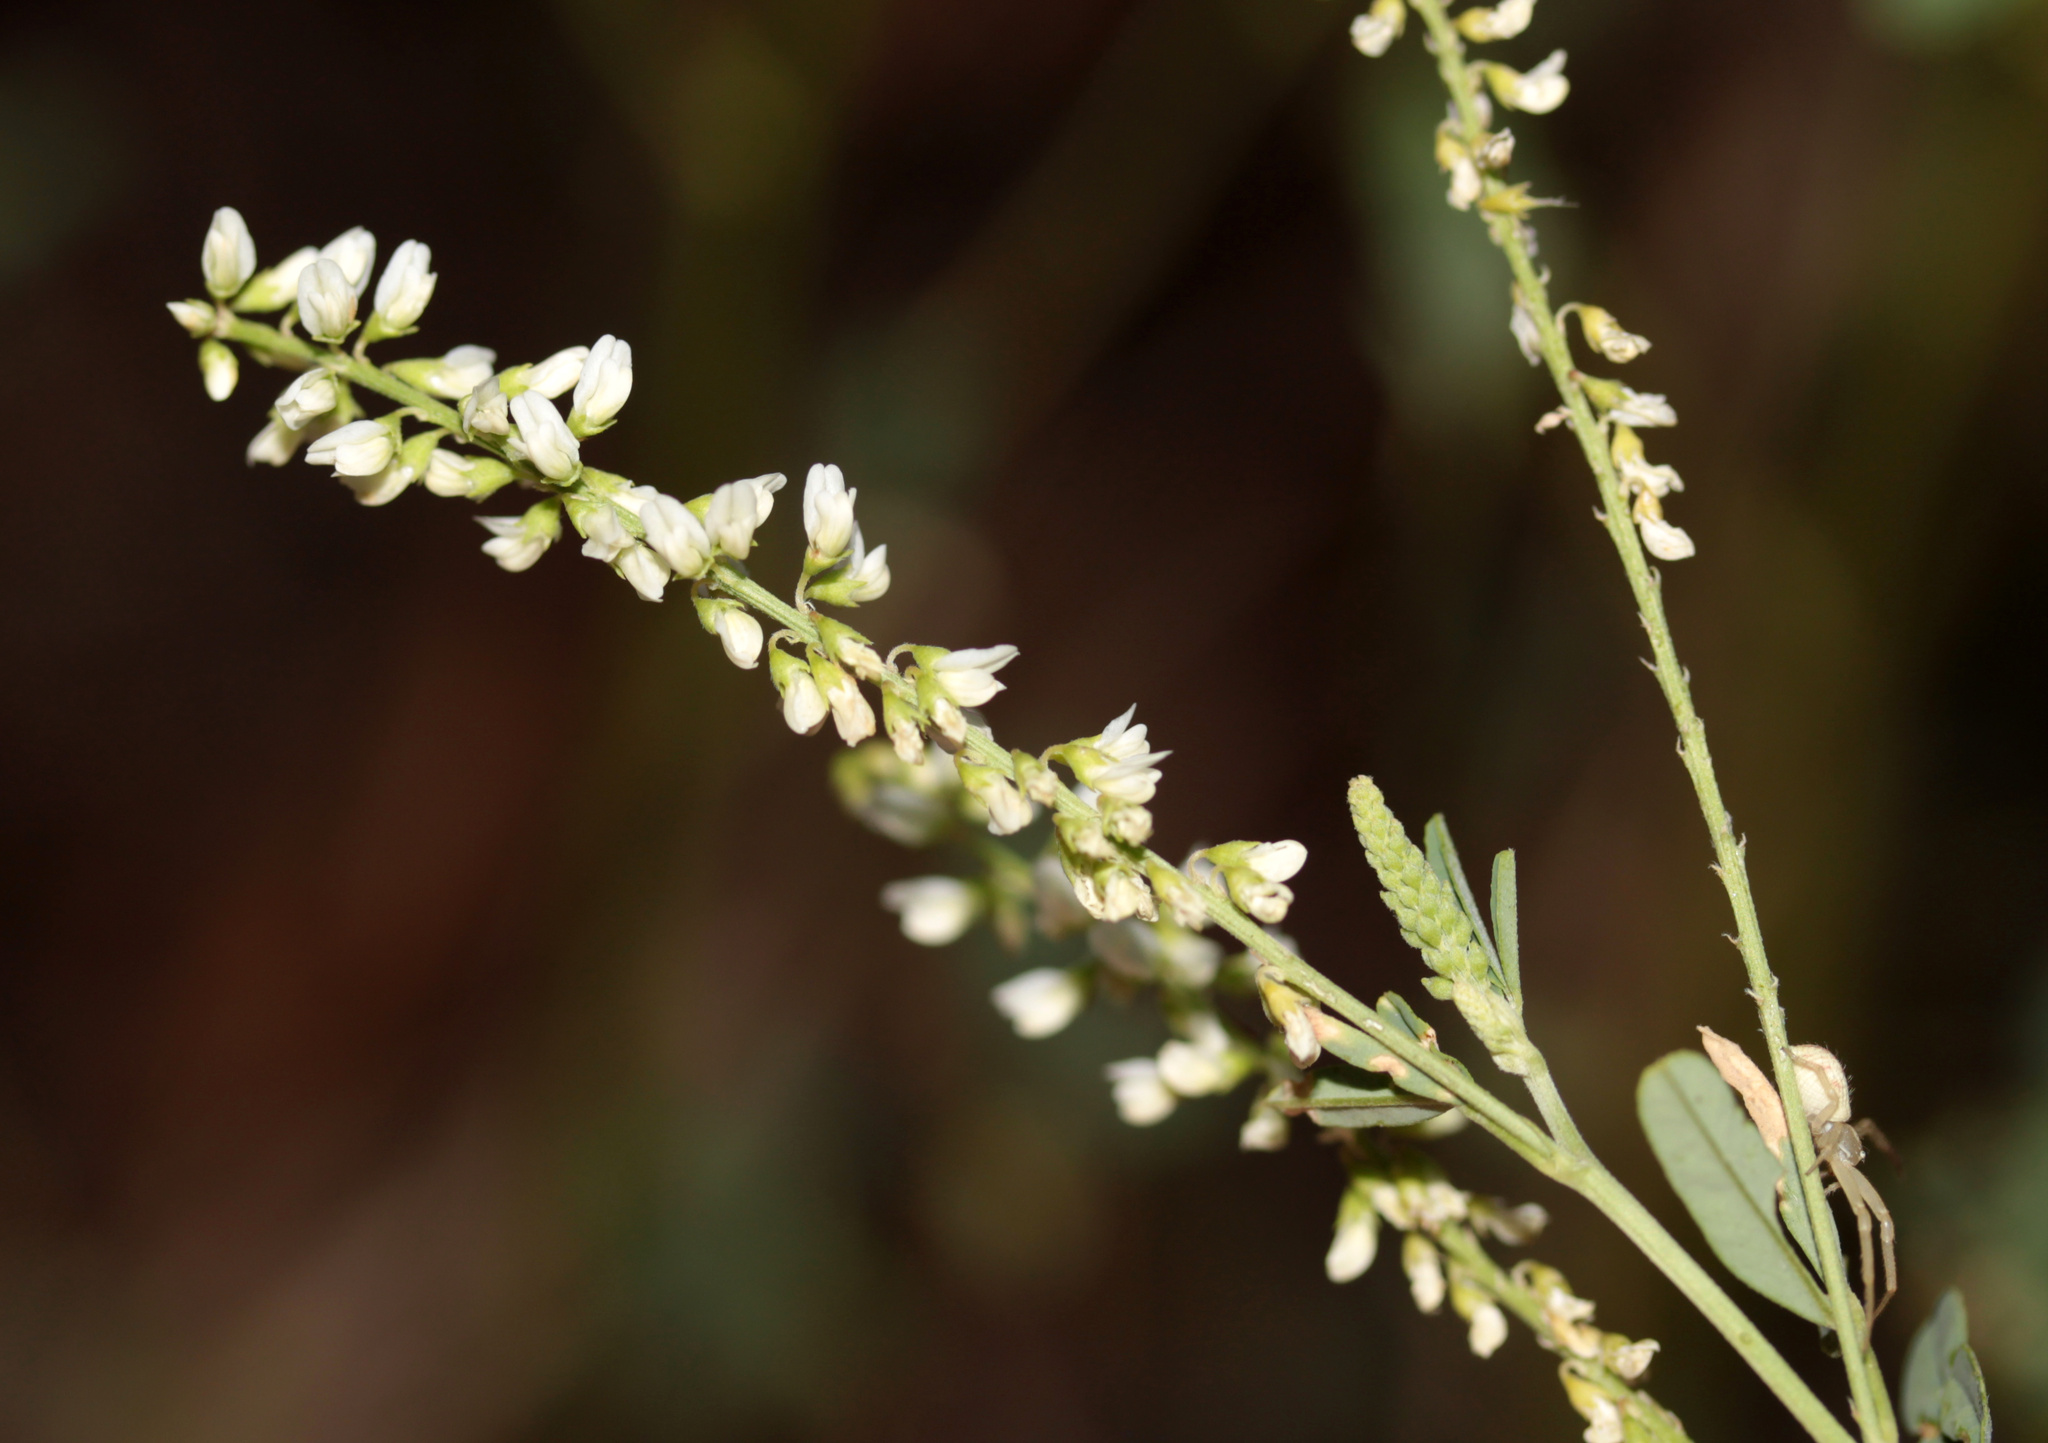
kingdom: Plantae
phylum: Tracheophyta
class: Magnoliopsida
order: Fabales
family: Fabaceae
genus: Melilotus
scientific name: Melilotus albus
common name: White melilot
